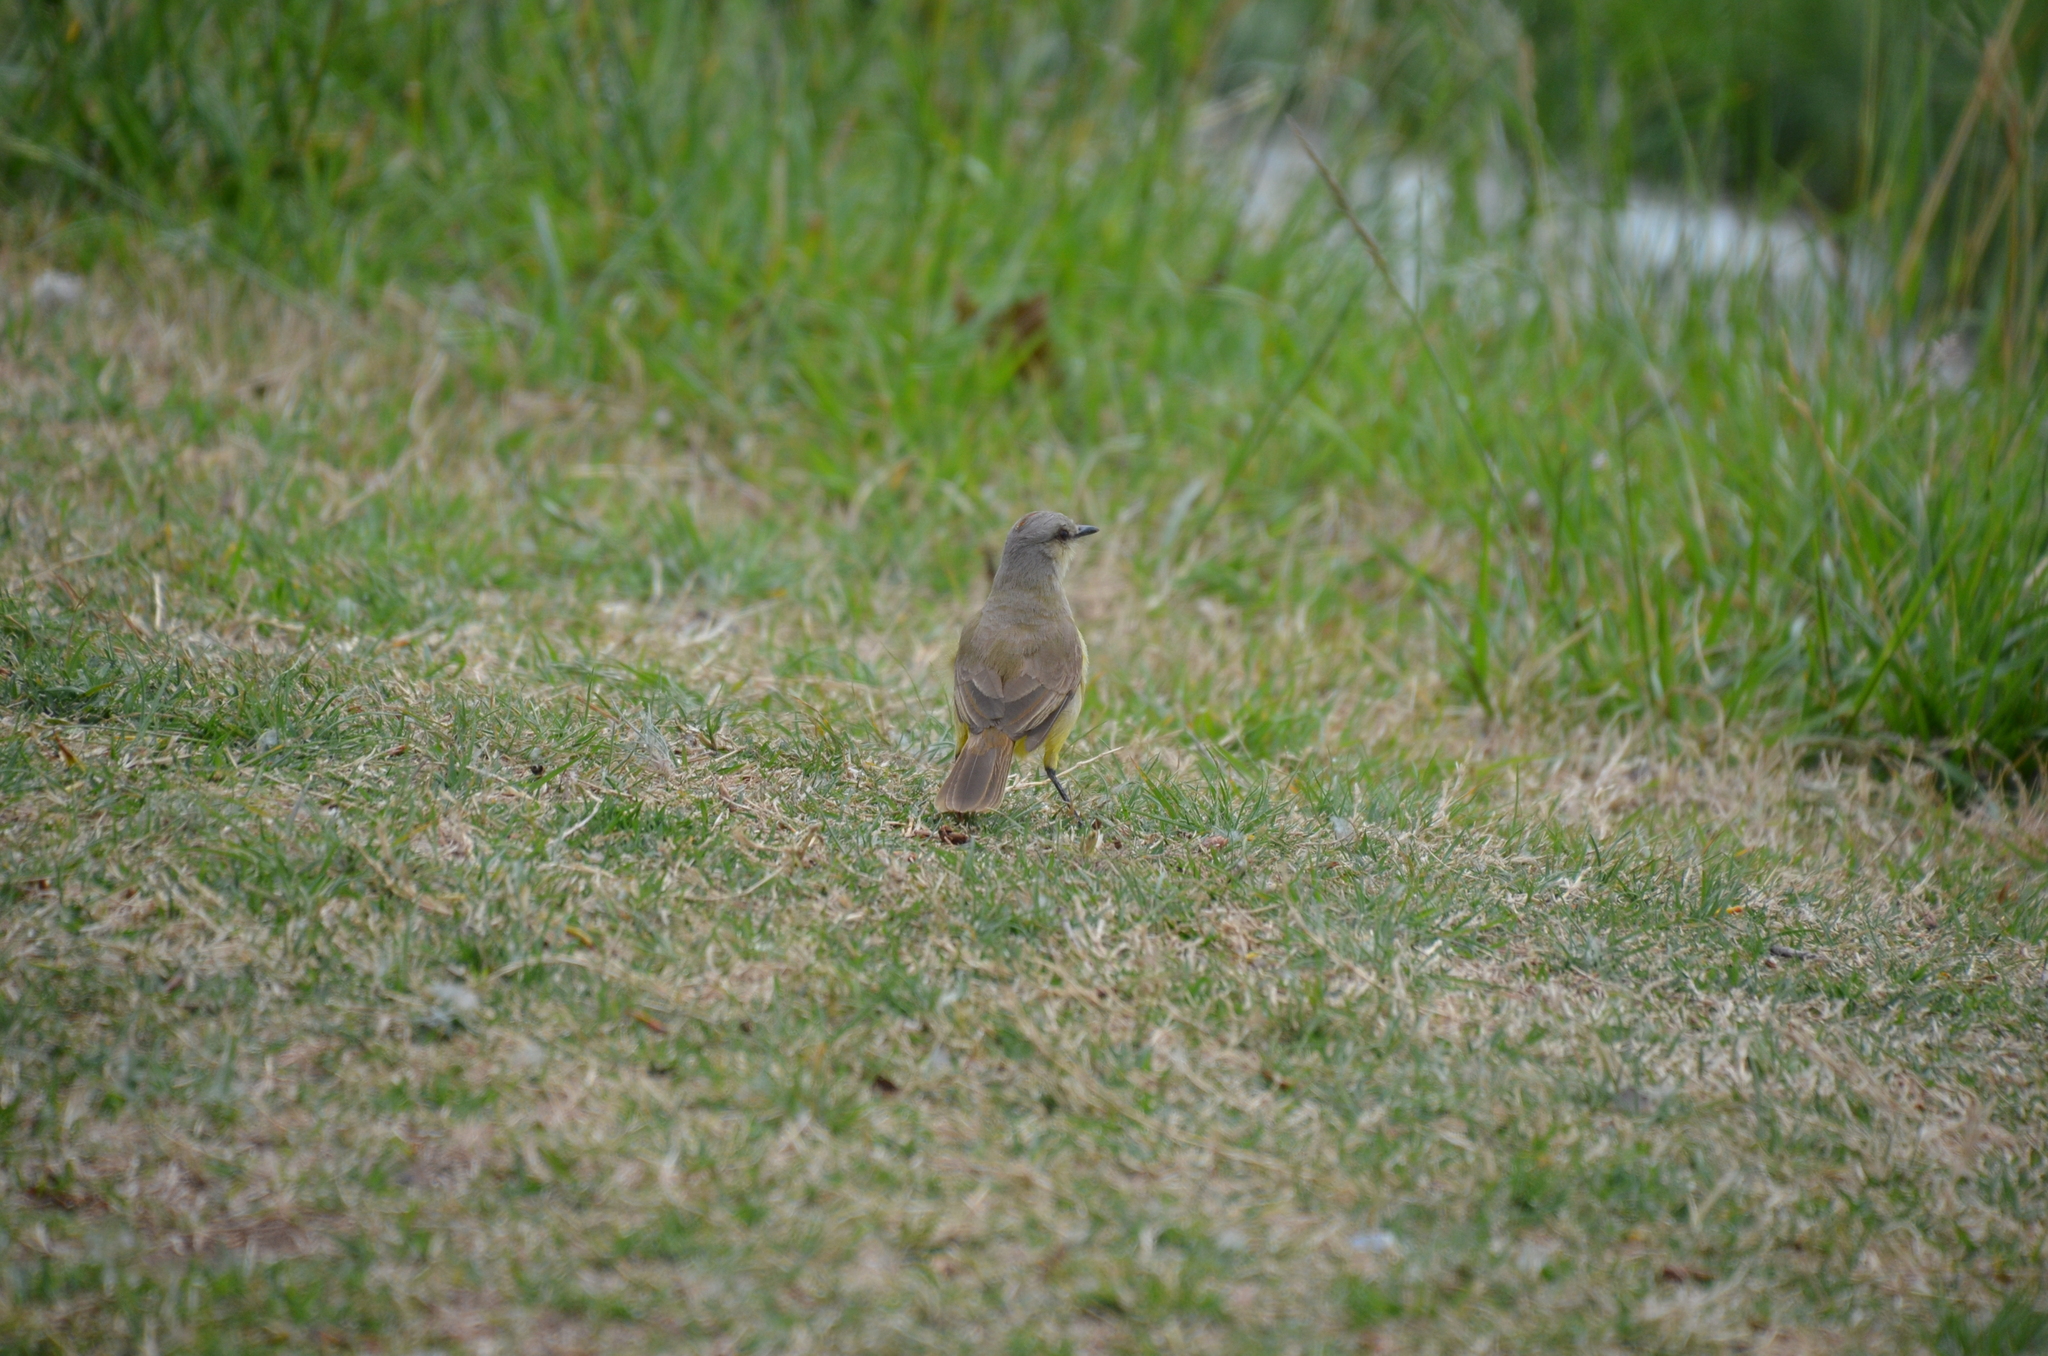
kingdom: Animalia
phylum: Chordata
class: Aves
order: Passeriformes
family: Tyrannidae
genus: Machetornis
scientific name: Machetornis rixosa
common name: Cattle tyrant
